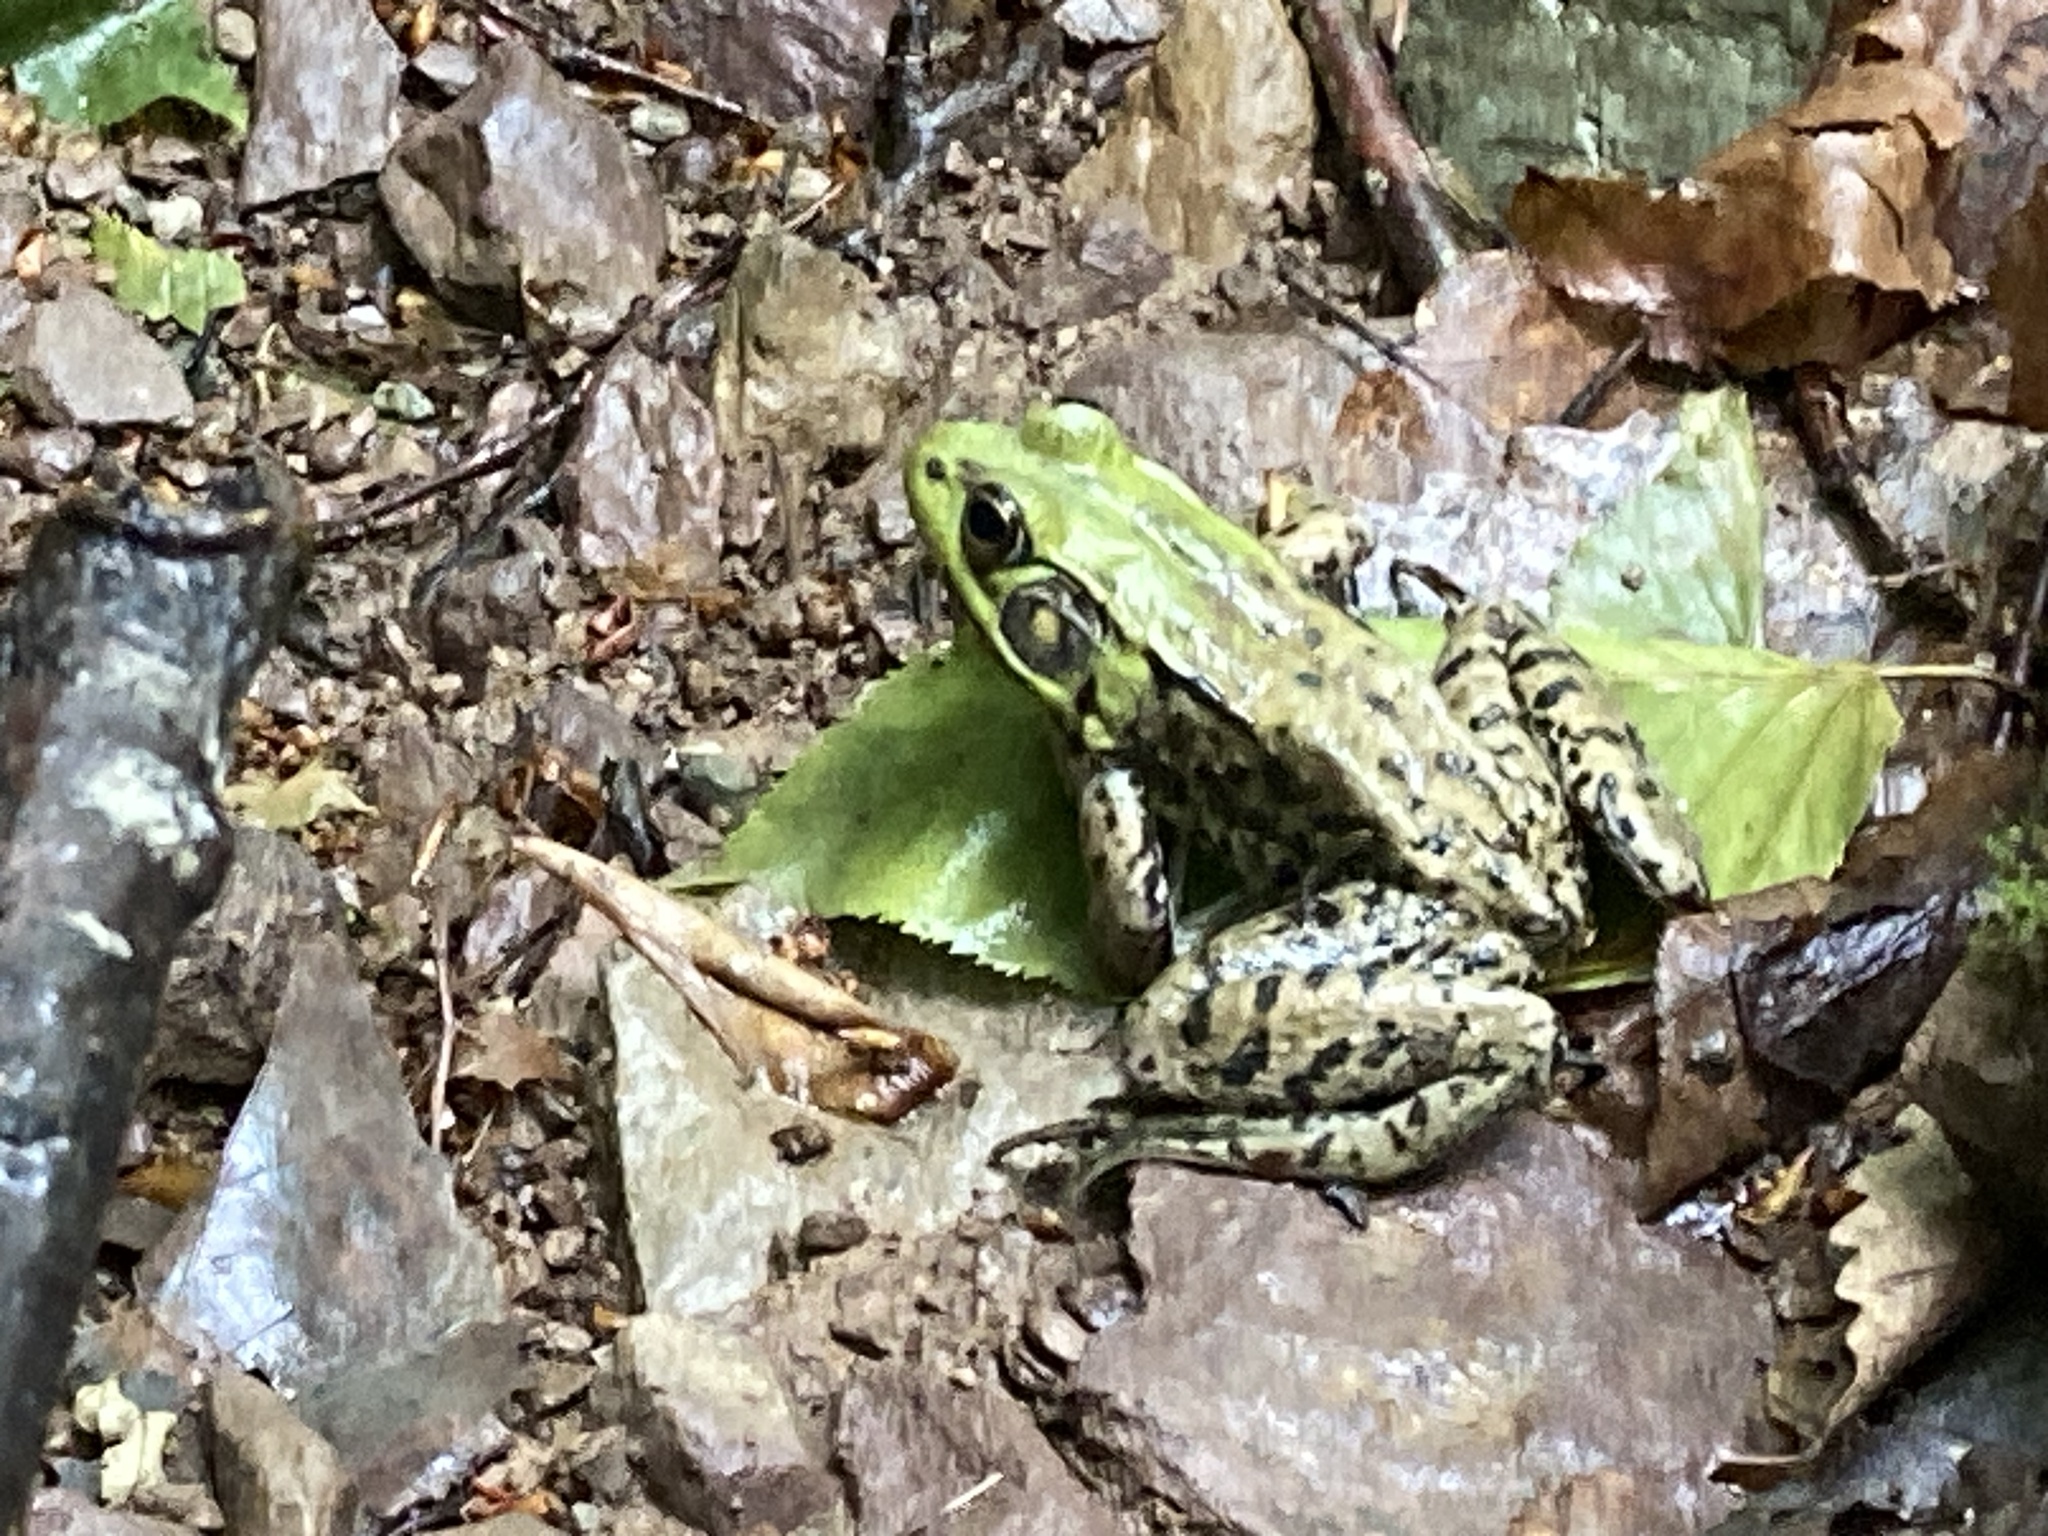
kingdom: Animalia
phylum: Chordata
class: Amphibia
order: Anura
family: Ranidae
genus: Lithobates
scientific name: Lithobates clamitans
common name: Green frog
